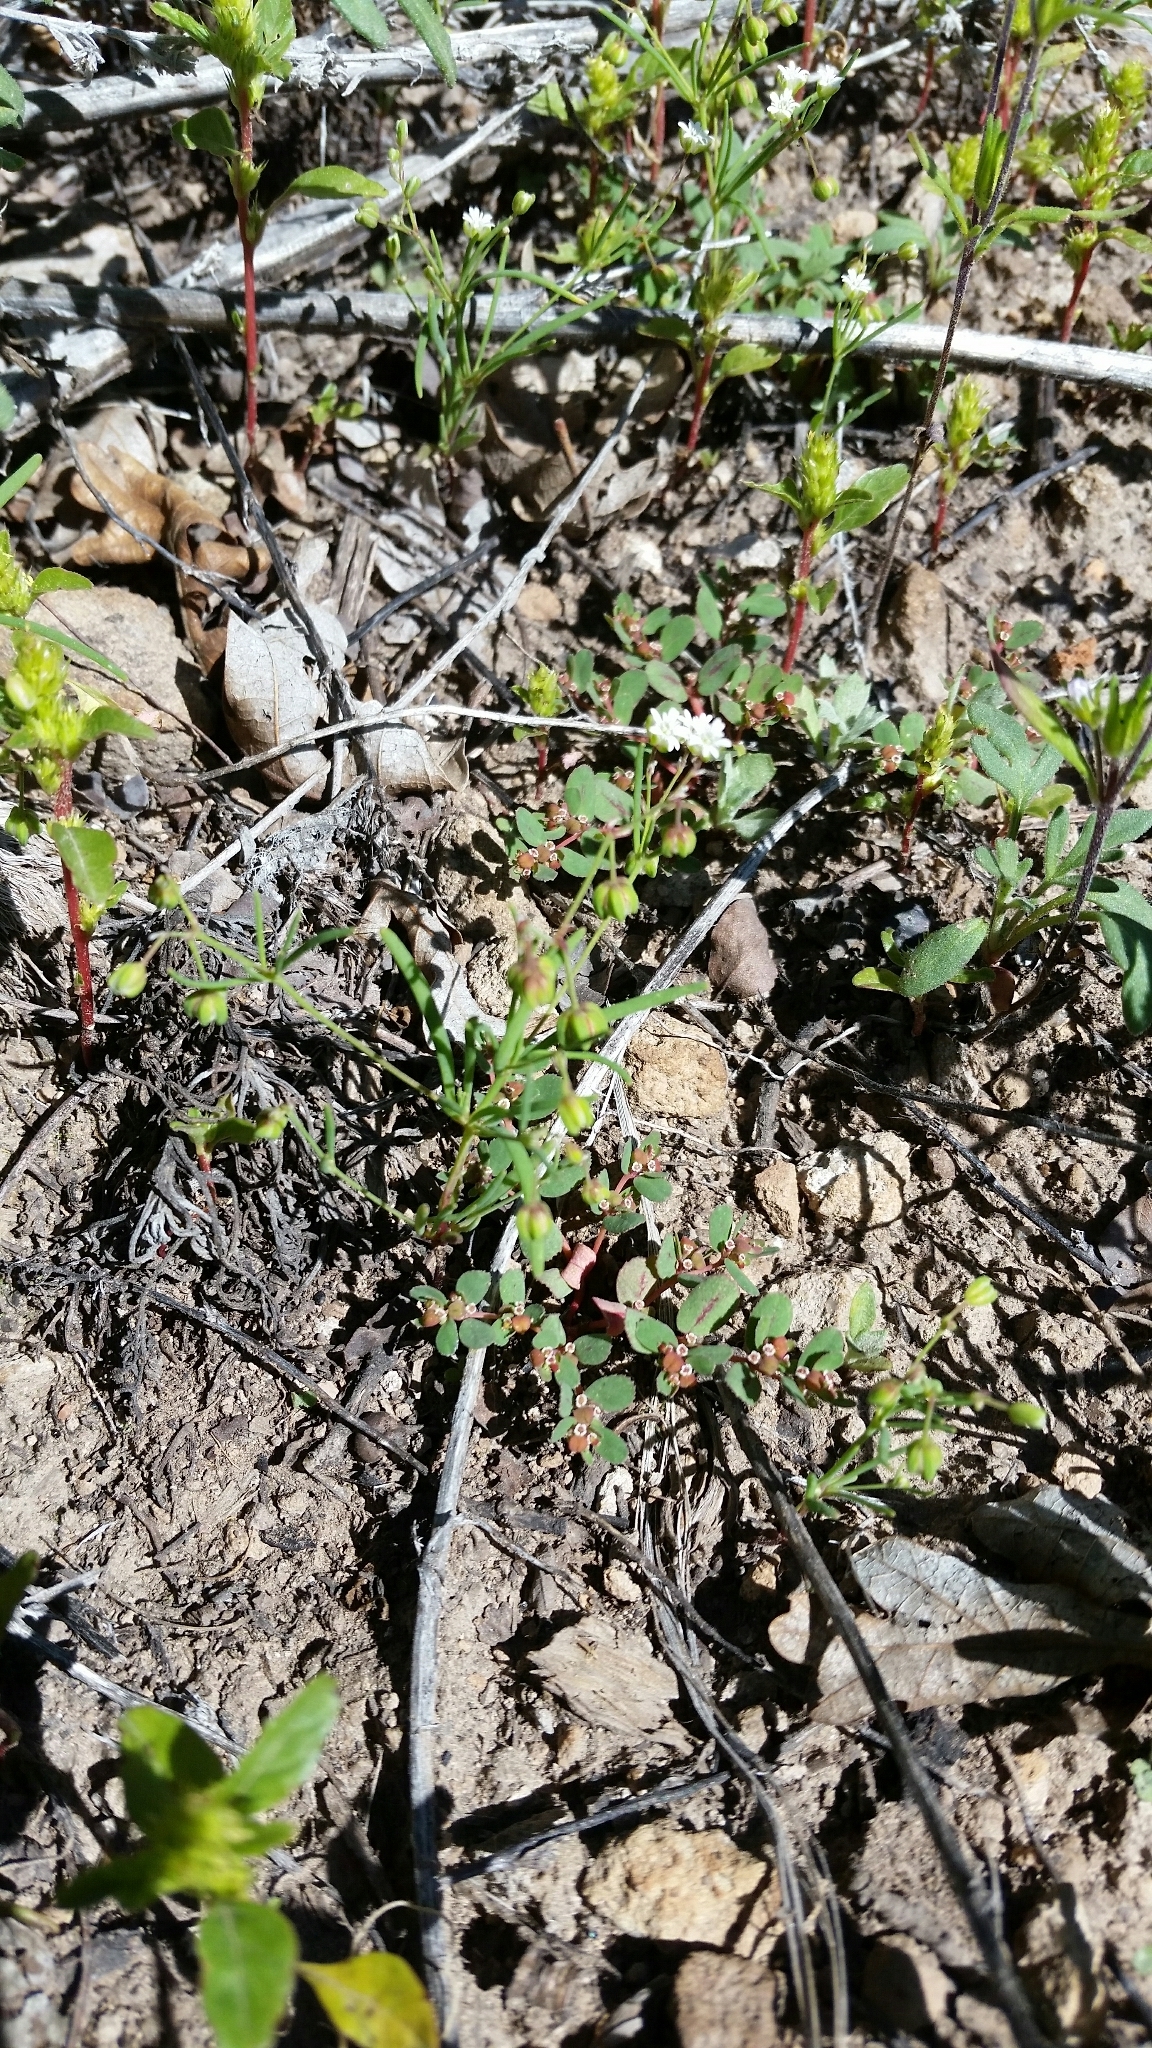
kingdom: Plantae
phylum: Tracheophyta
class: Magnoliopsida
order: Caryophyllales
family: Caryophyllaceae
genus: Drymaria
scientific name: Drymaria molluginea
